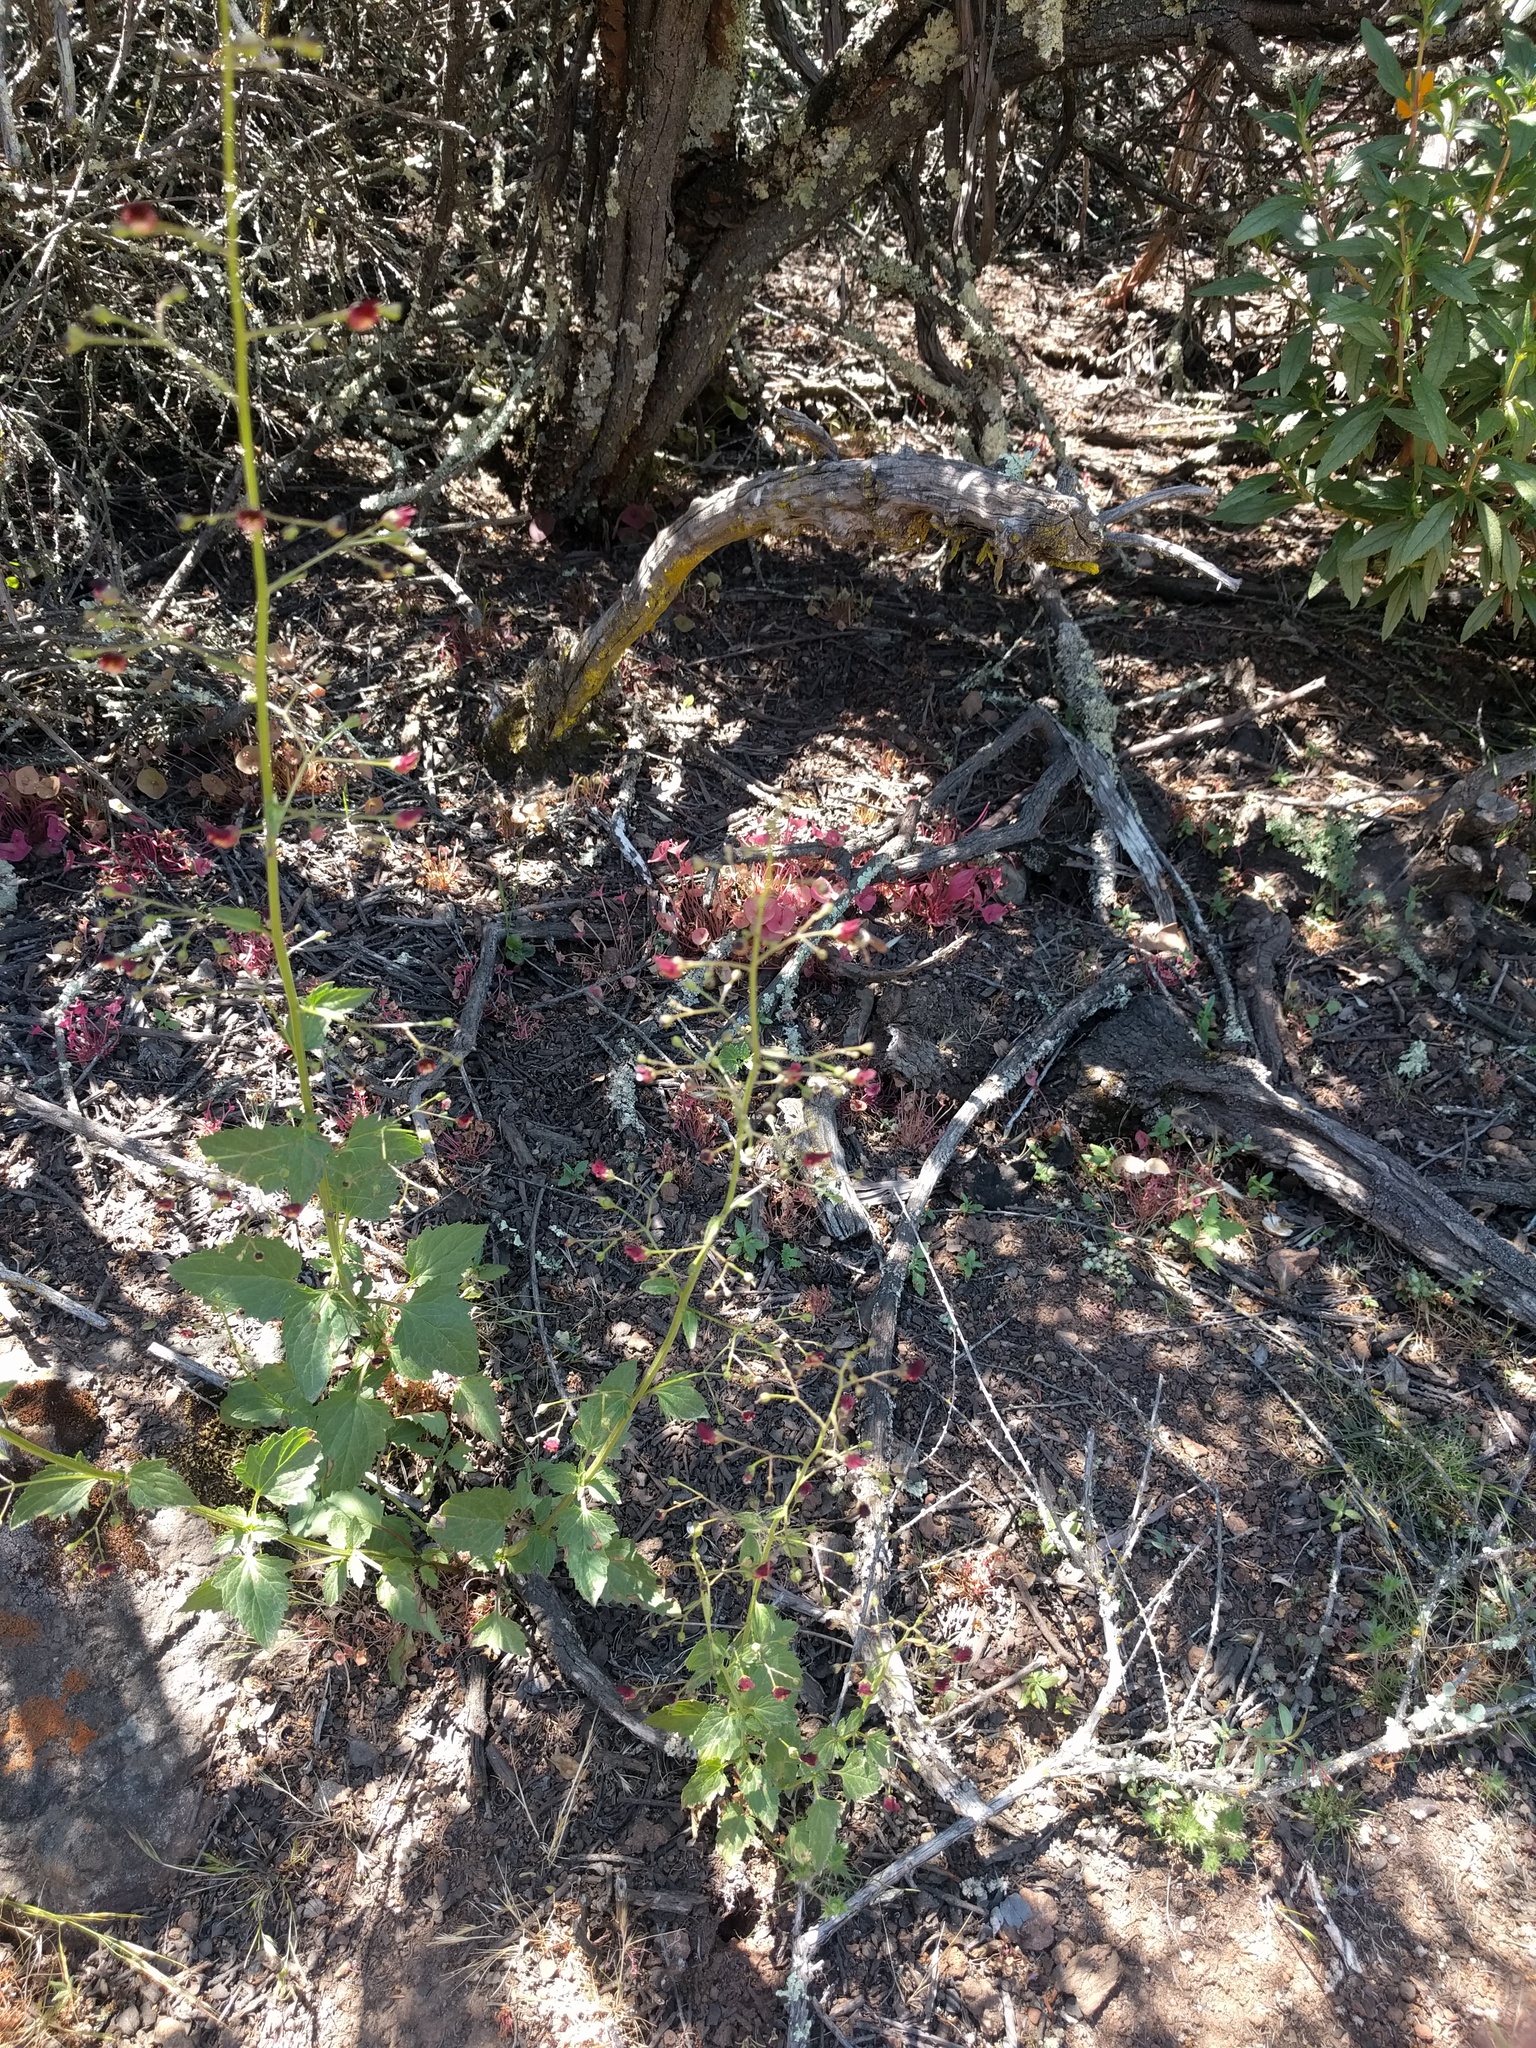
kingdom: Plantae
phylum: Tracheophyta
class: Magnoliopsida
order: Lamiales
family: Scrophulariaceae
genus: Scrophularia
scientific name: Scrophularia californica
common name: California figwort
